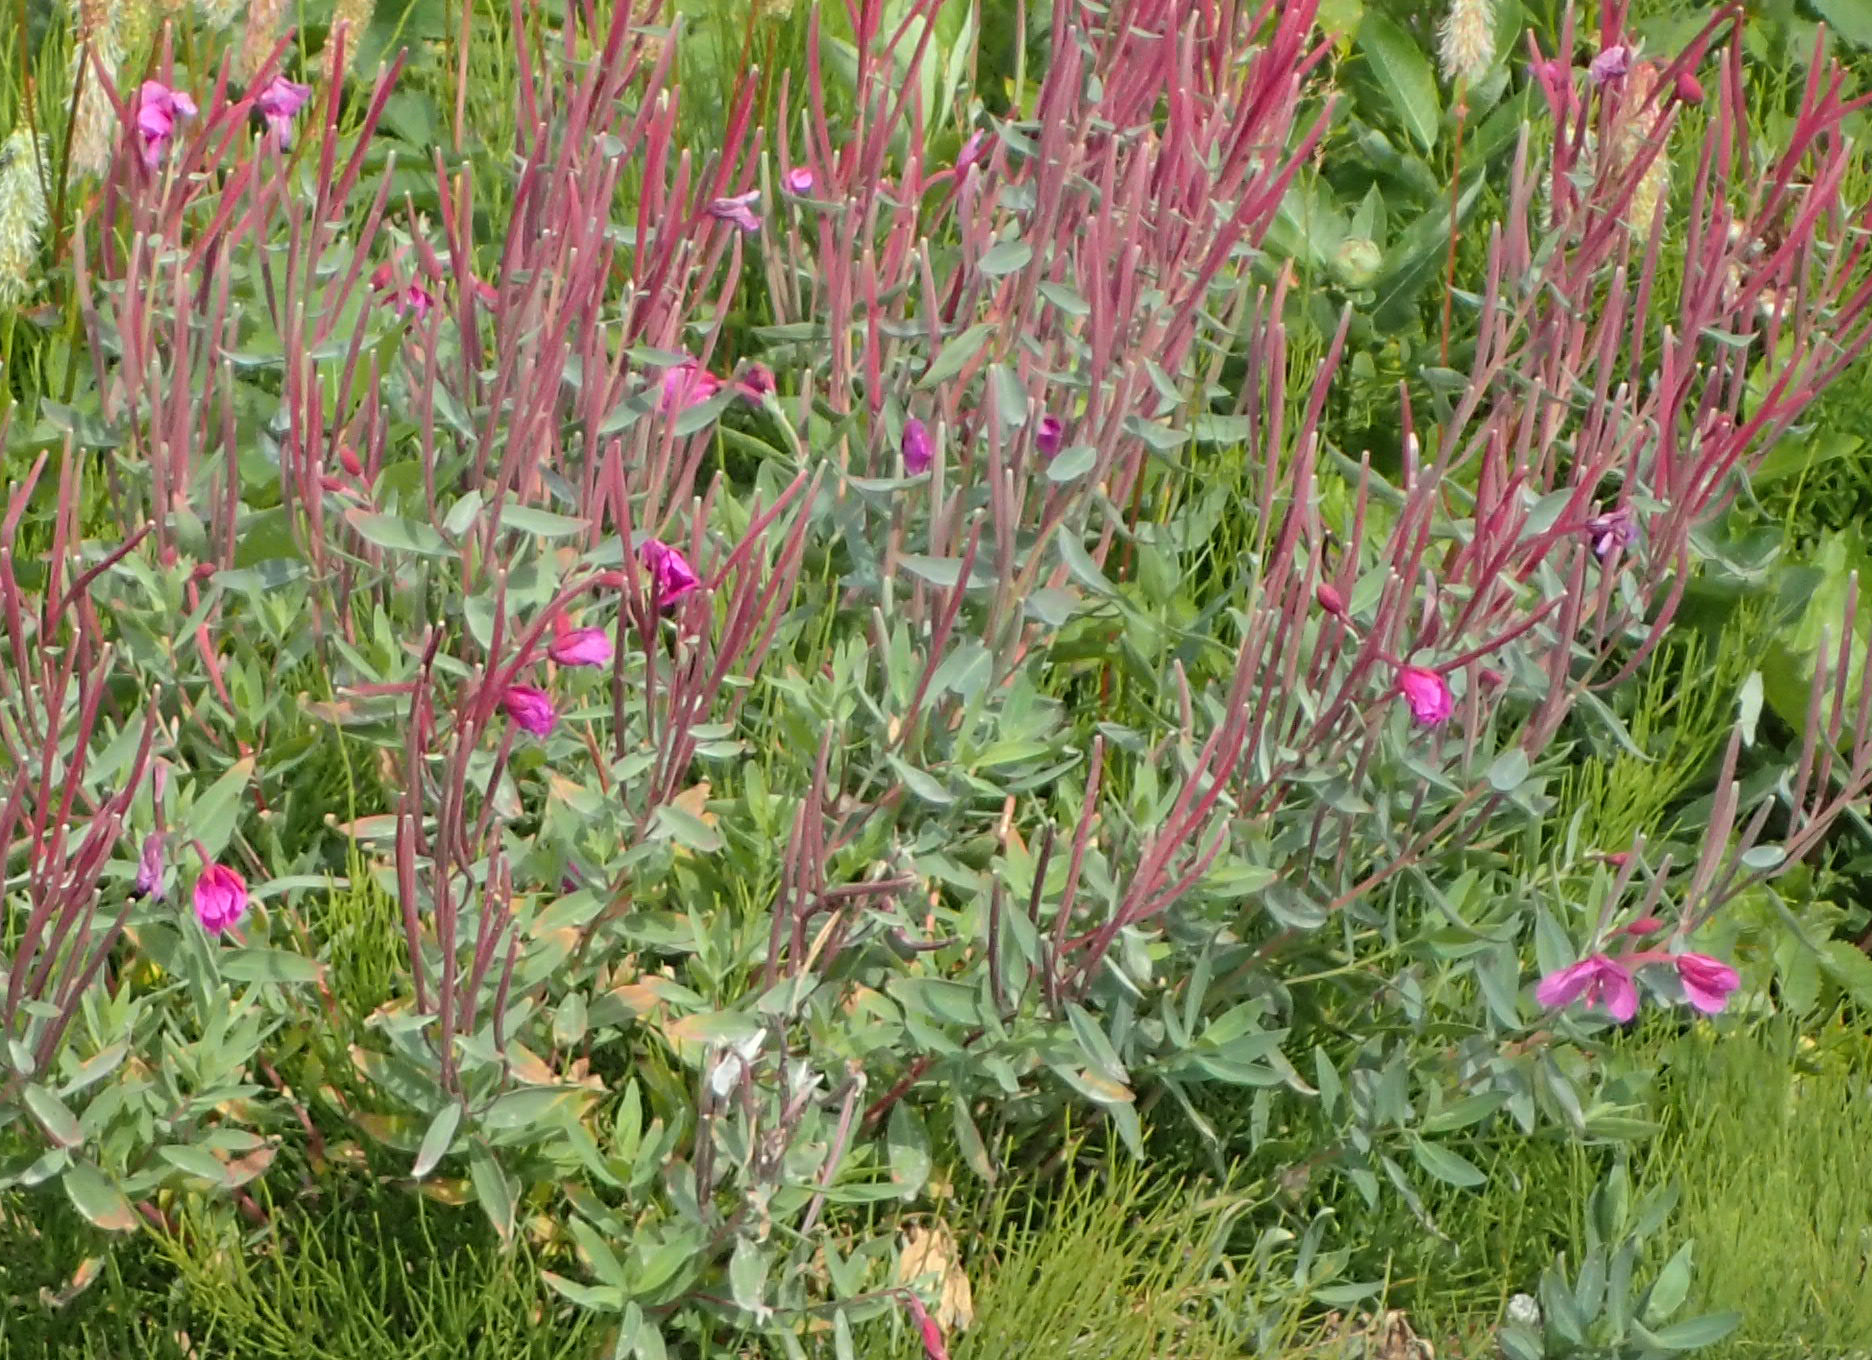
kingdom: Plantae
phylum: Tracheophyta
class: Magnoliopsida
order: Myrtales
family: Onagraceae
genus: Chamaenerion
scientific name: Chamaenerion latifolium
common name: Dwarf fireweed
